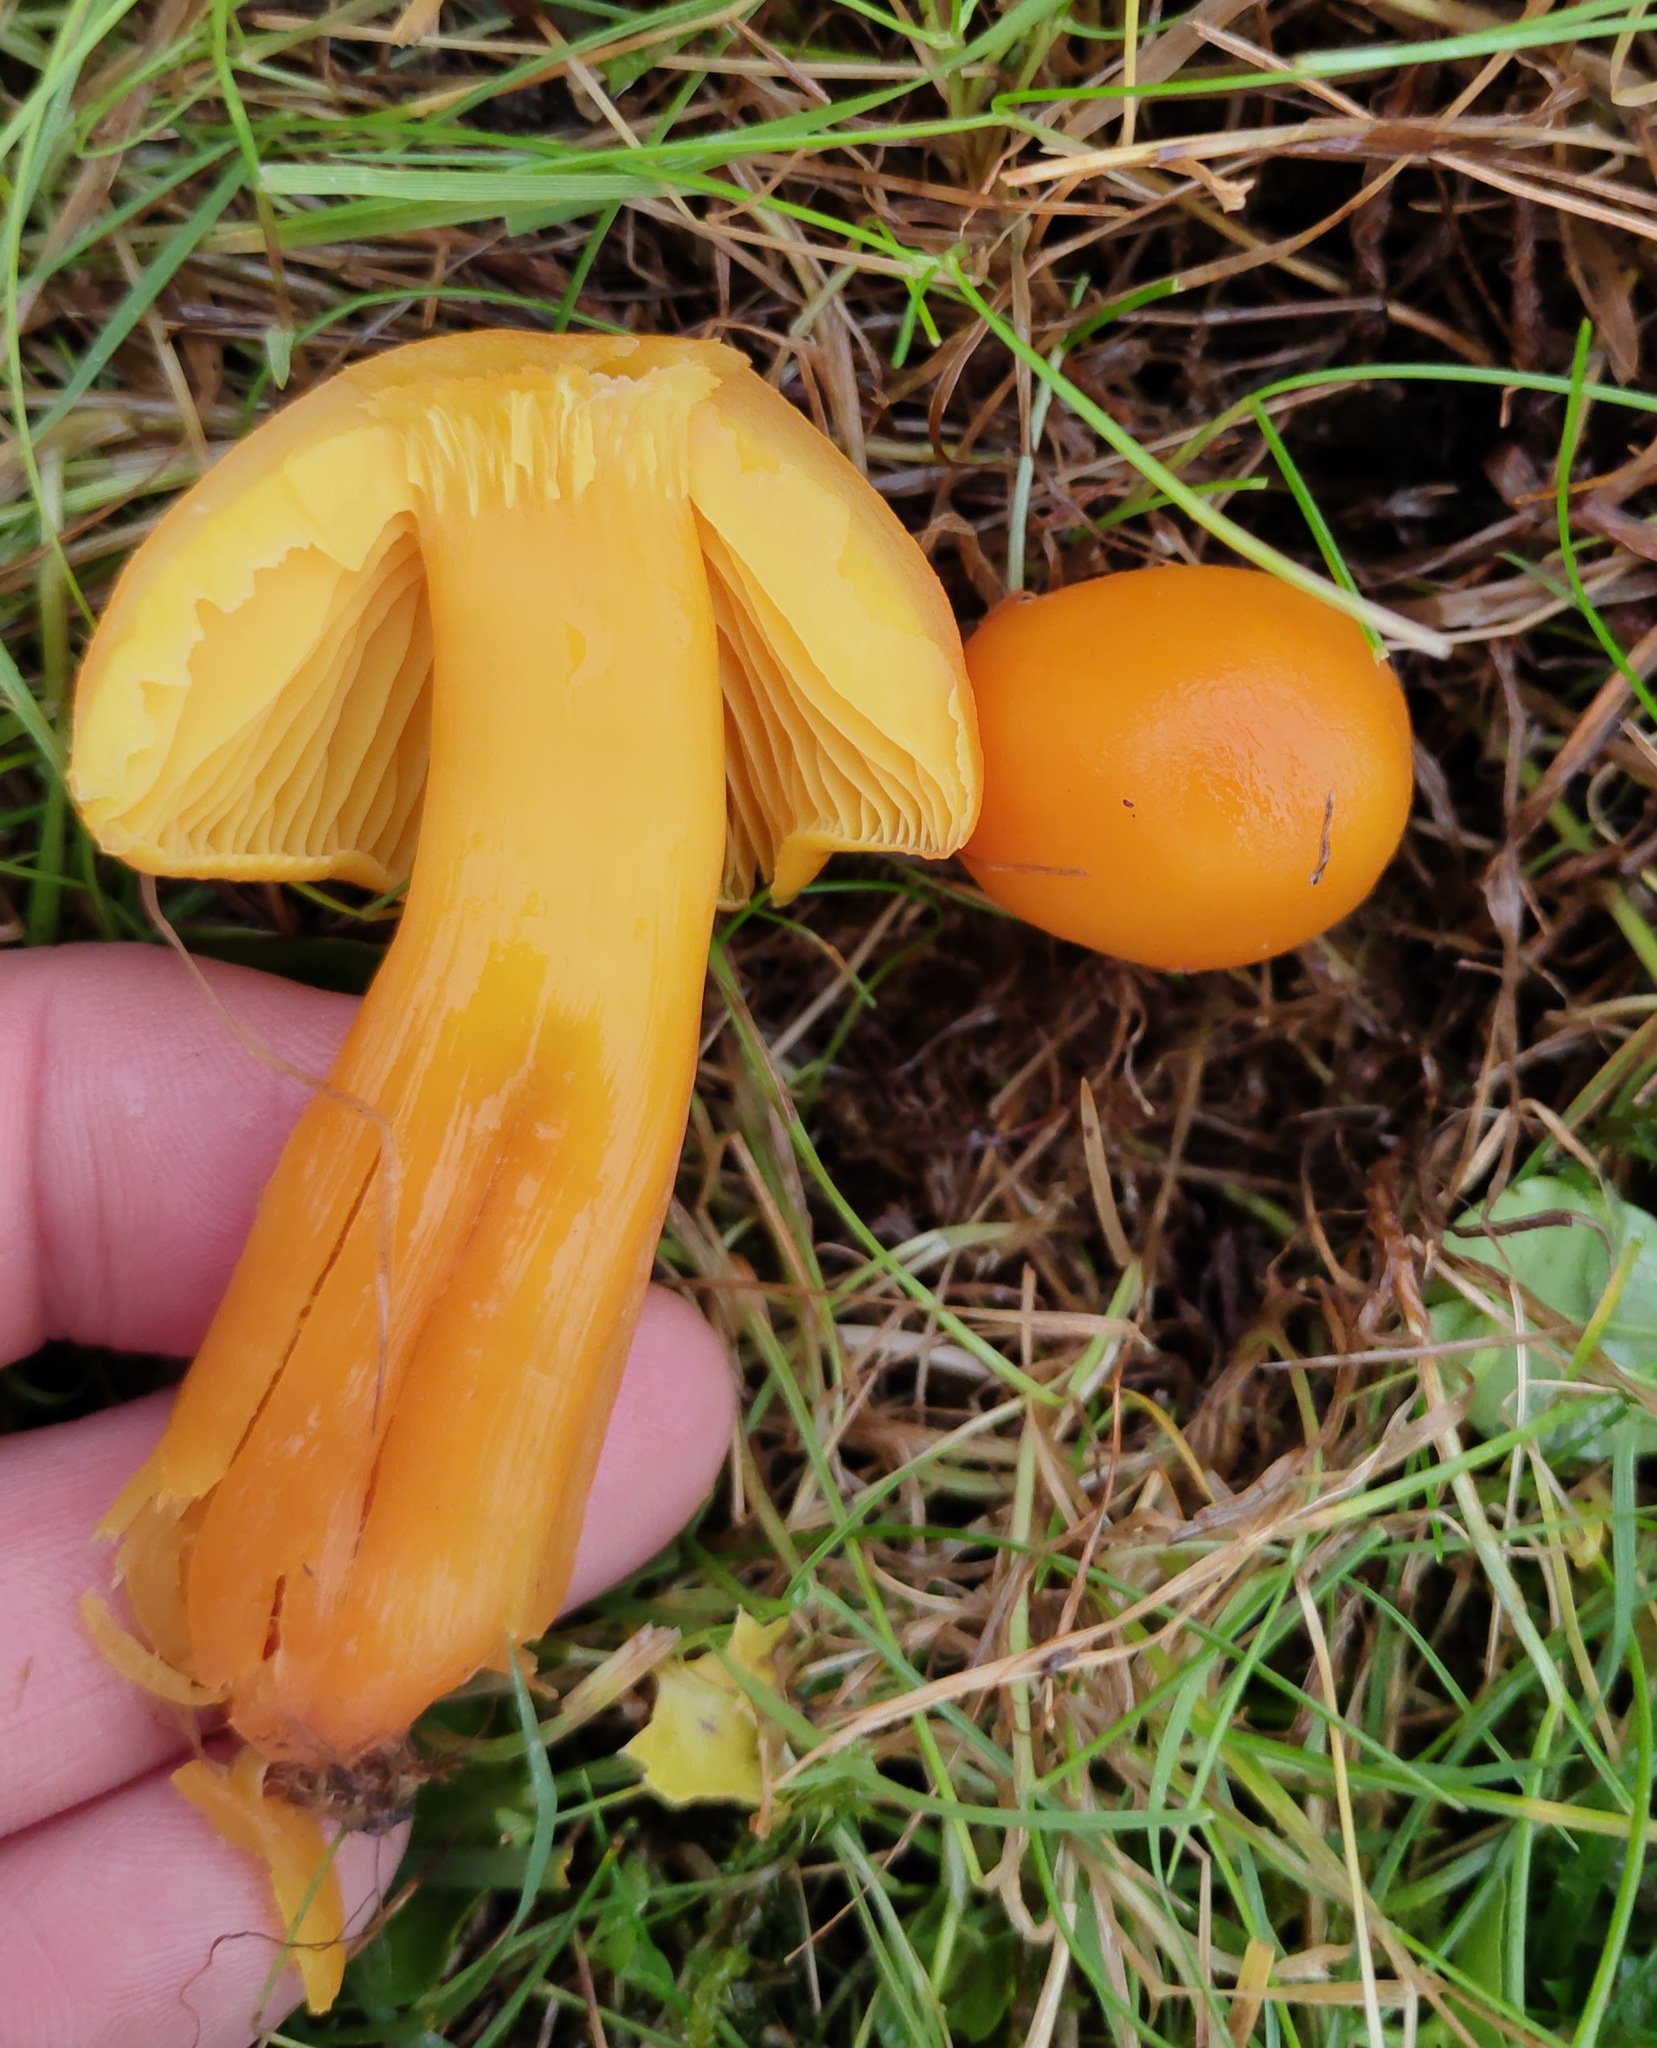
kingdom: Fungi
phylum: Basidiomycota
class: Agaricomycetes
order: Agaricales
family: Hygrophoraceae
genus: Hygrocybe
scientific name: Hygrocybe chlorophana
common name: Golden waxcap
